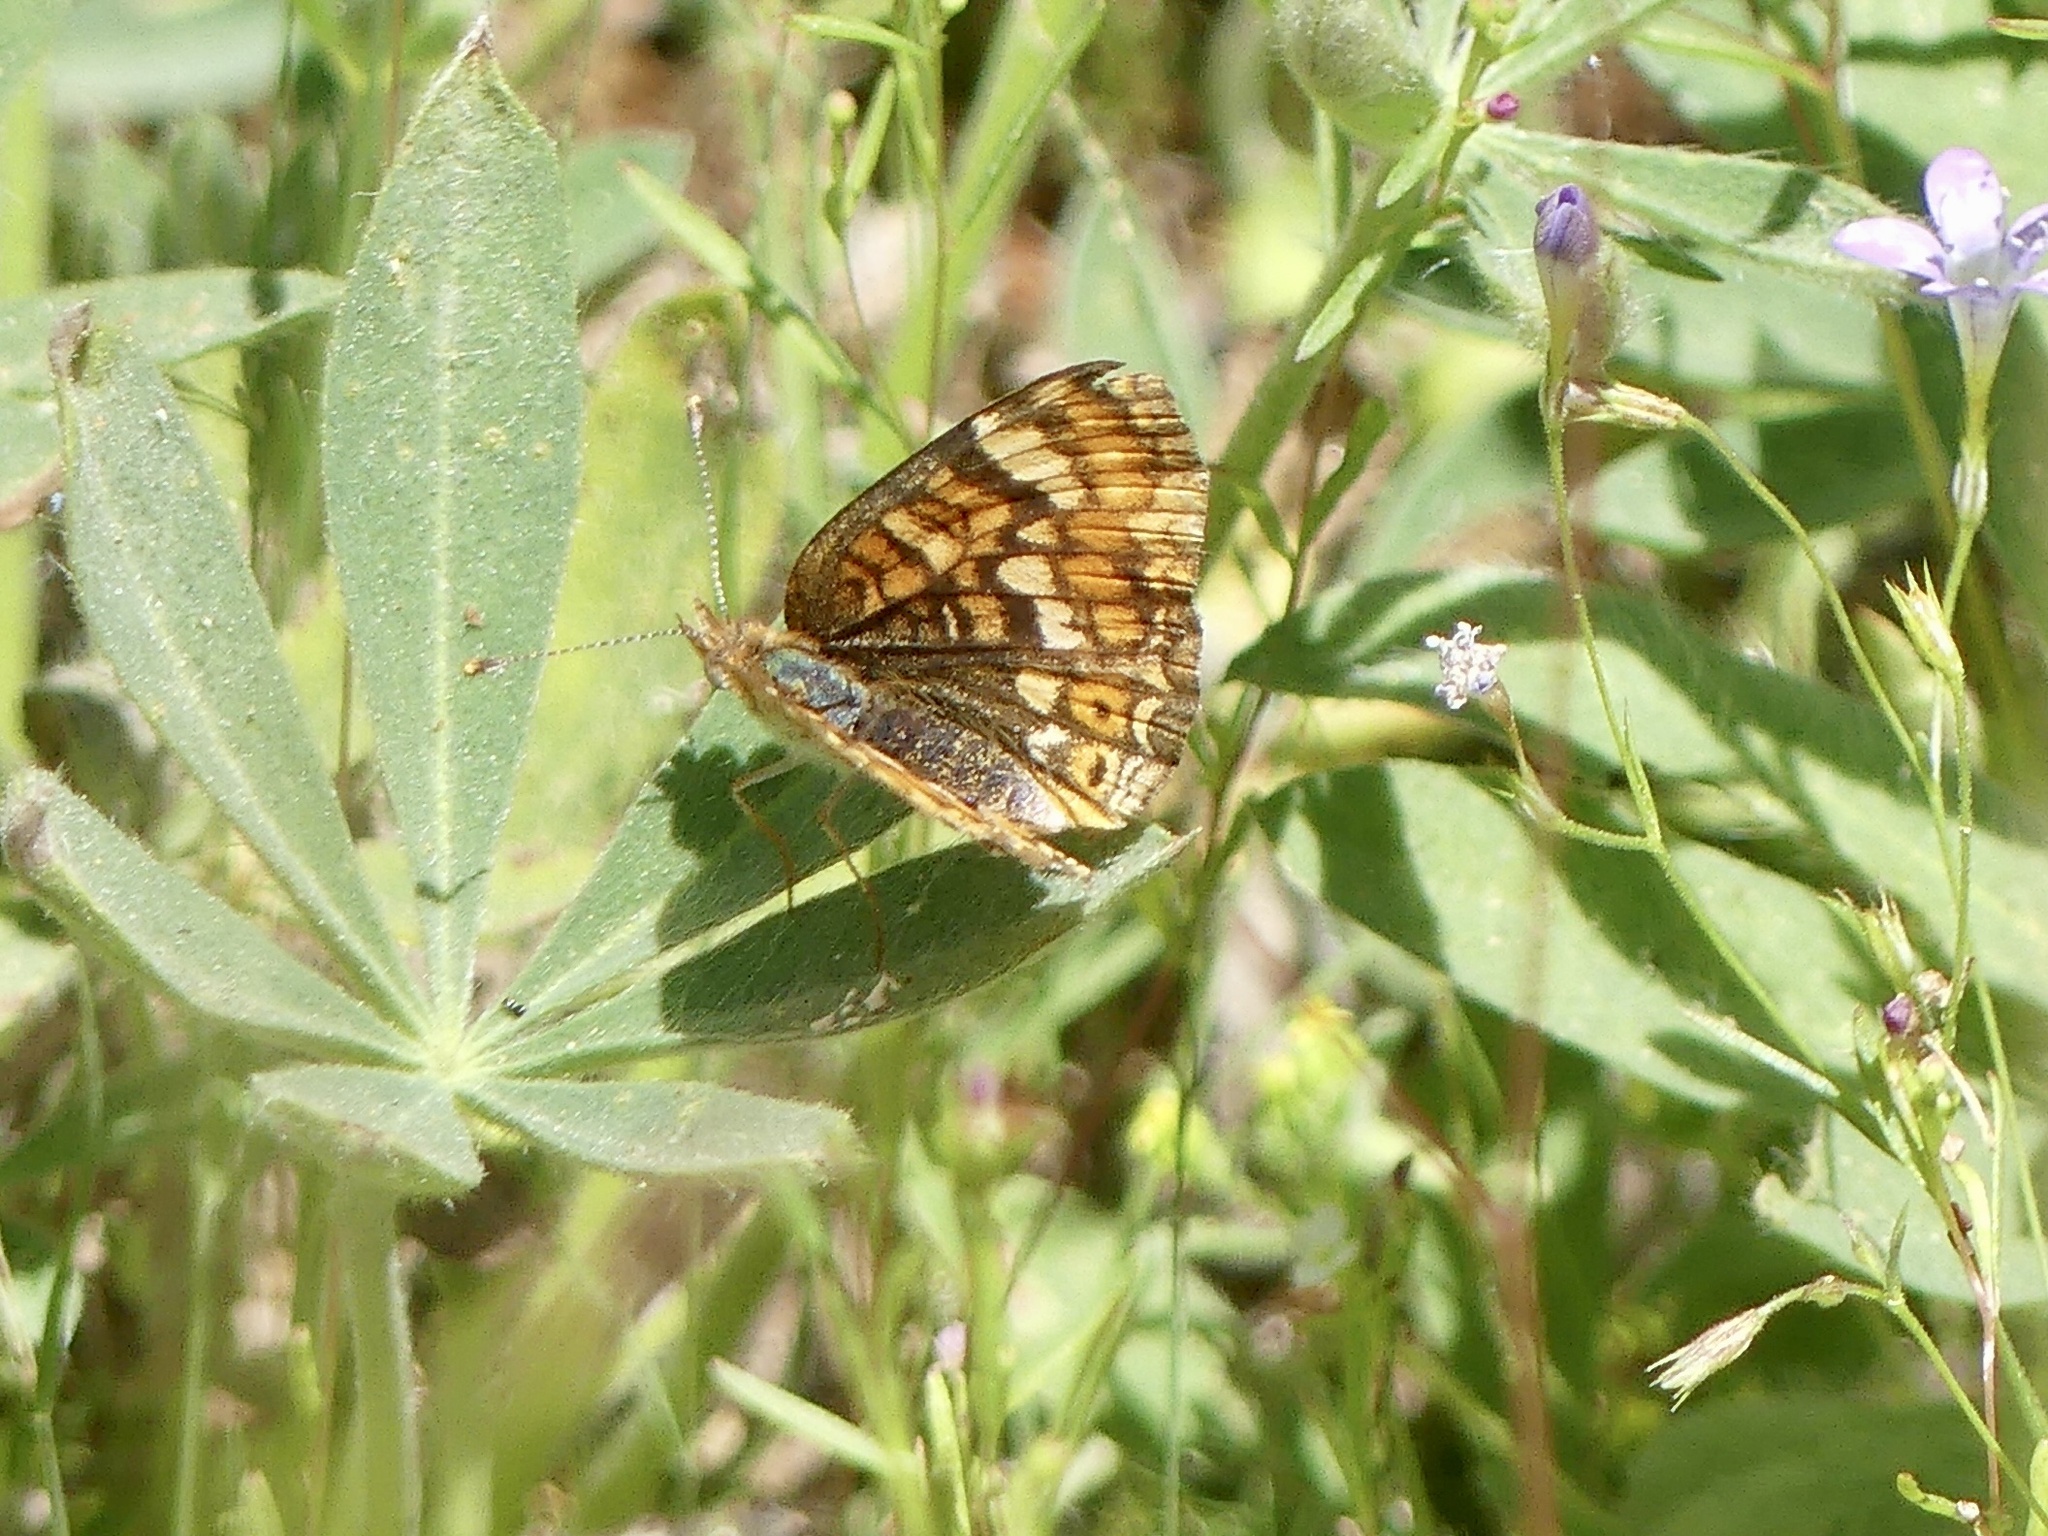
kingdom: Animalia
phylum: Arthropoda
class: Insecta
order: Lepidoptera
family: Nymphalidae
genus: Phyciodes
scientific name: Phyciodes tharos
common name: Pearl crescent
